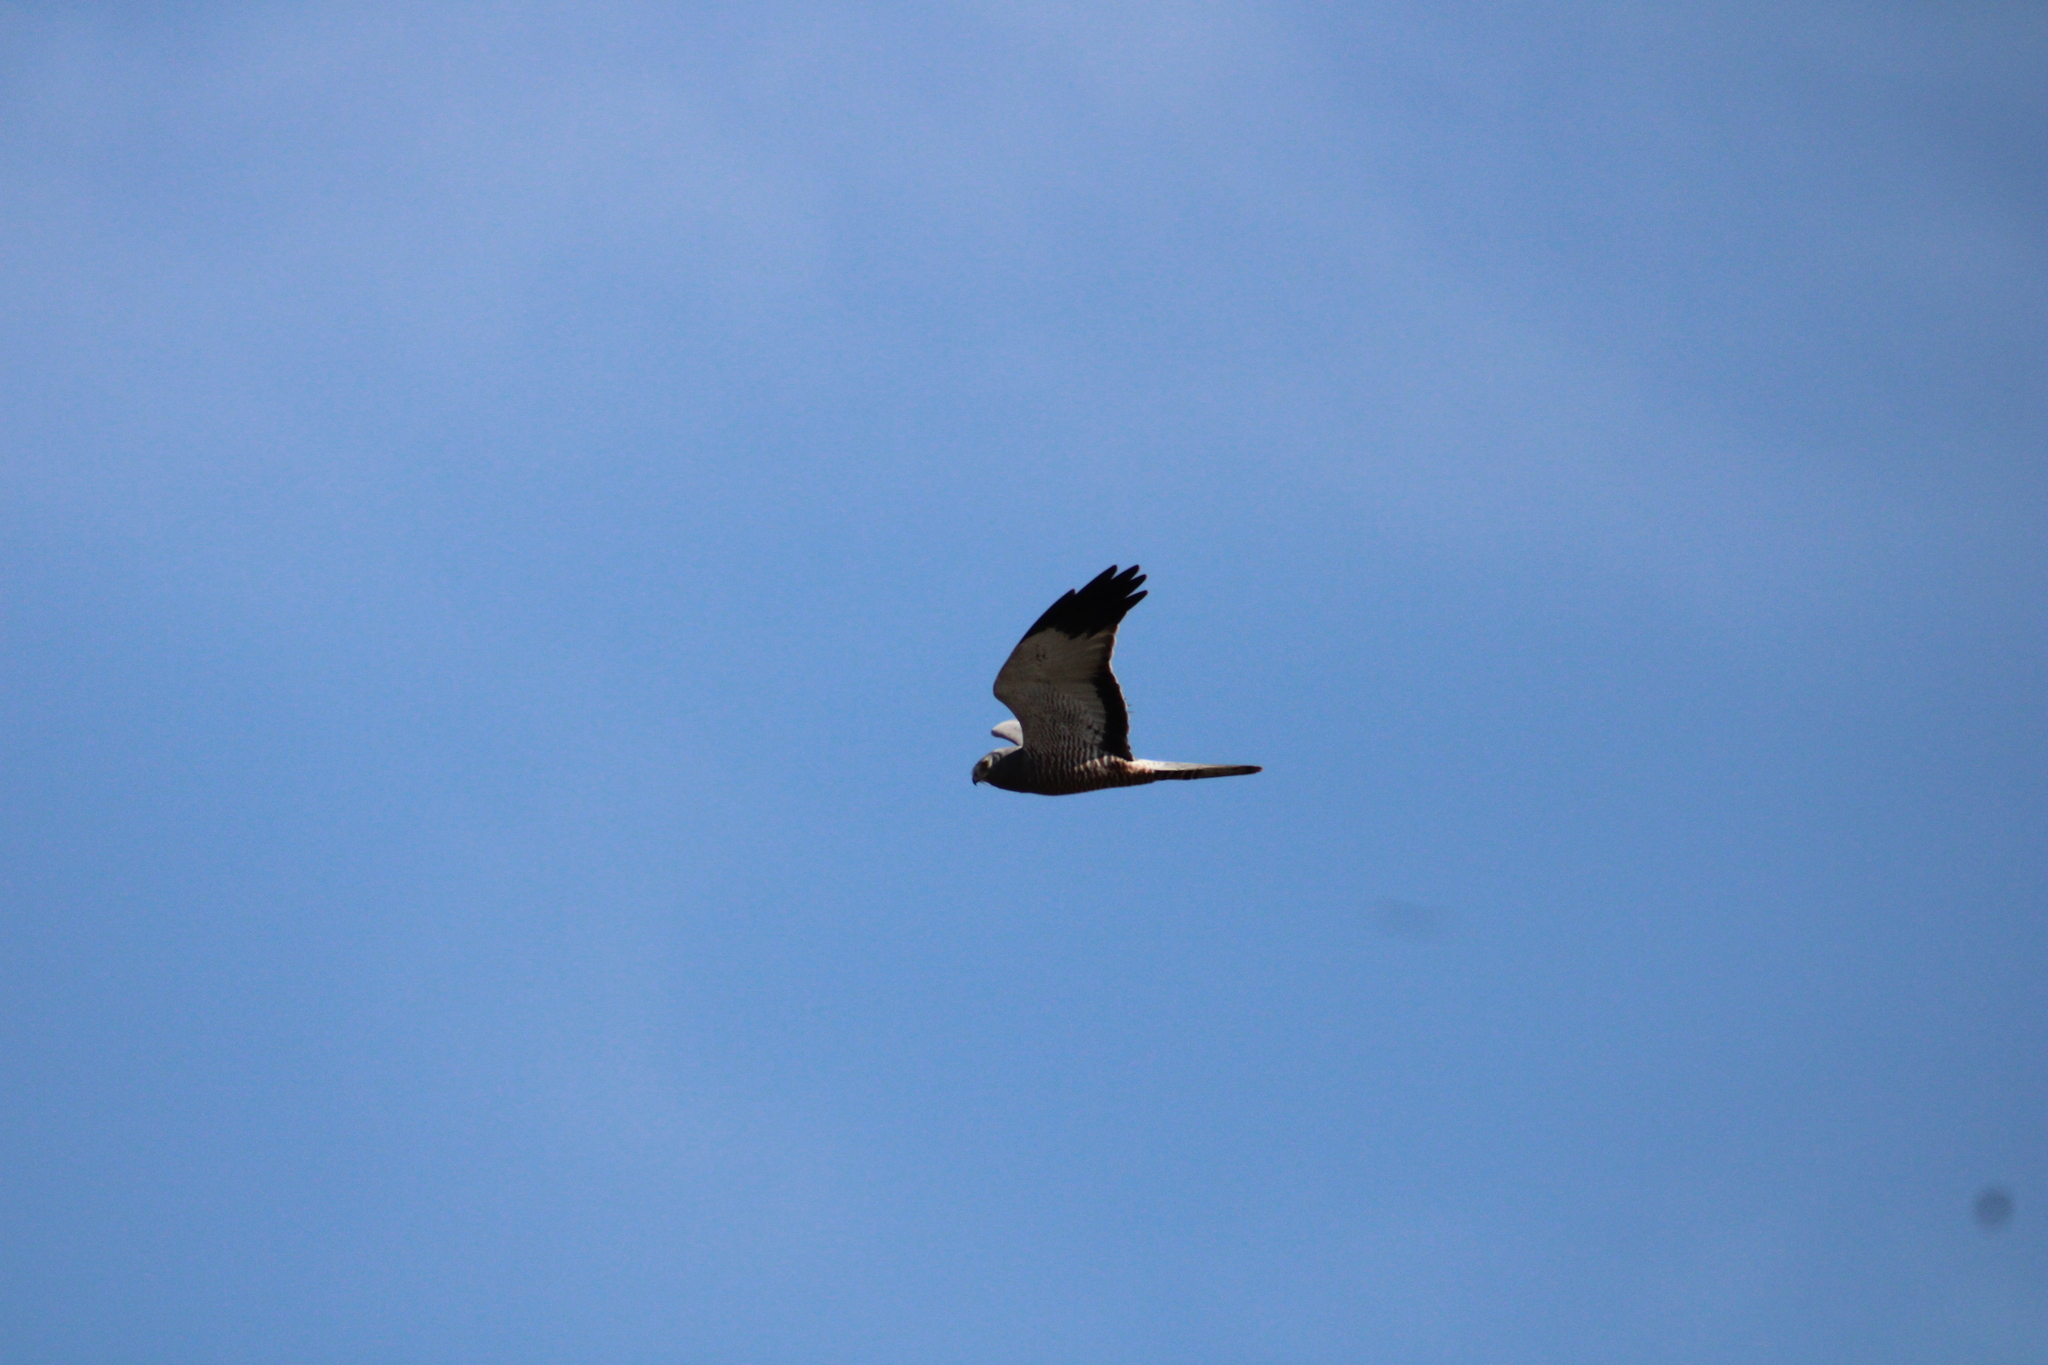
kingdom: Animalia
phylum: Chordata
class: Aves
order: Accipitriformes
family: Accipitridae
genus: Circus
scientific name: Circus cinereus
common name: Cinereous harrier
